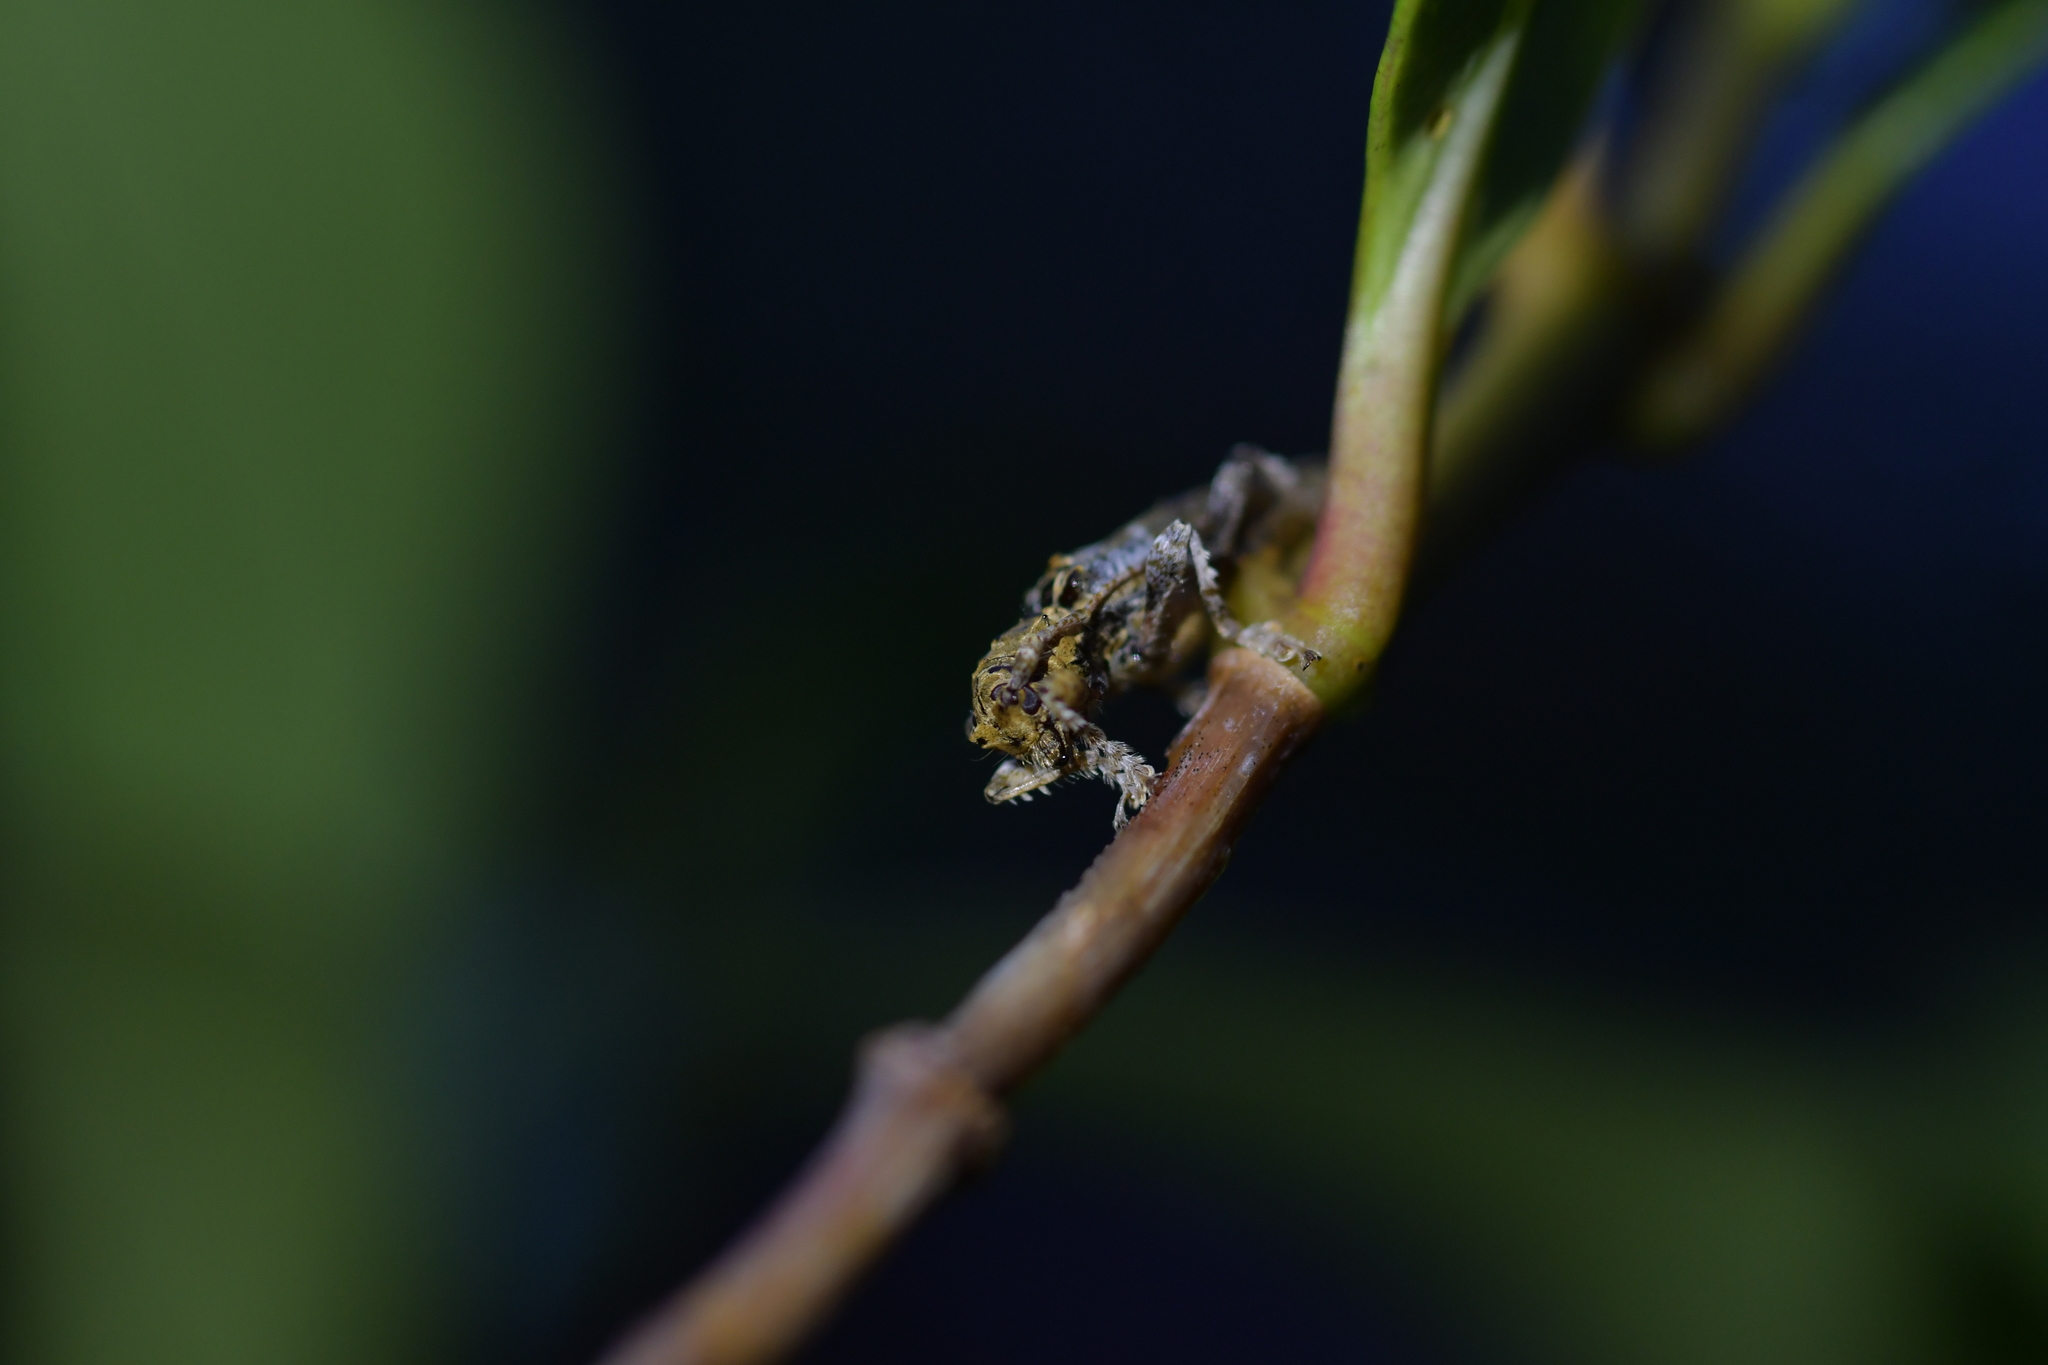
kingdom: Animalia
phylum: Arthropoda
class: Insecta
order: Coleoptera
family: Cerambycidae
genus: Tetrorea
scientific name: Tetrorea cilipes
